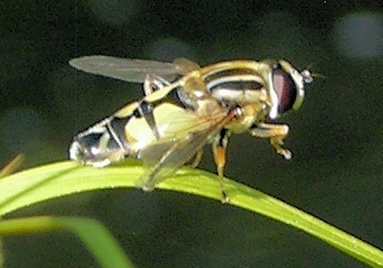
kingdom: Animalia
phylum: Arthropoda
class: Insecta
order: Diptera
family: Syrphidae
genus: Helophilus
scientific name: Helophilus trivittatus
